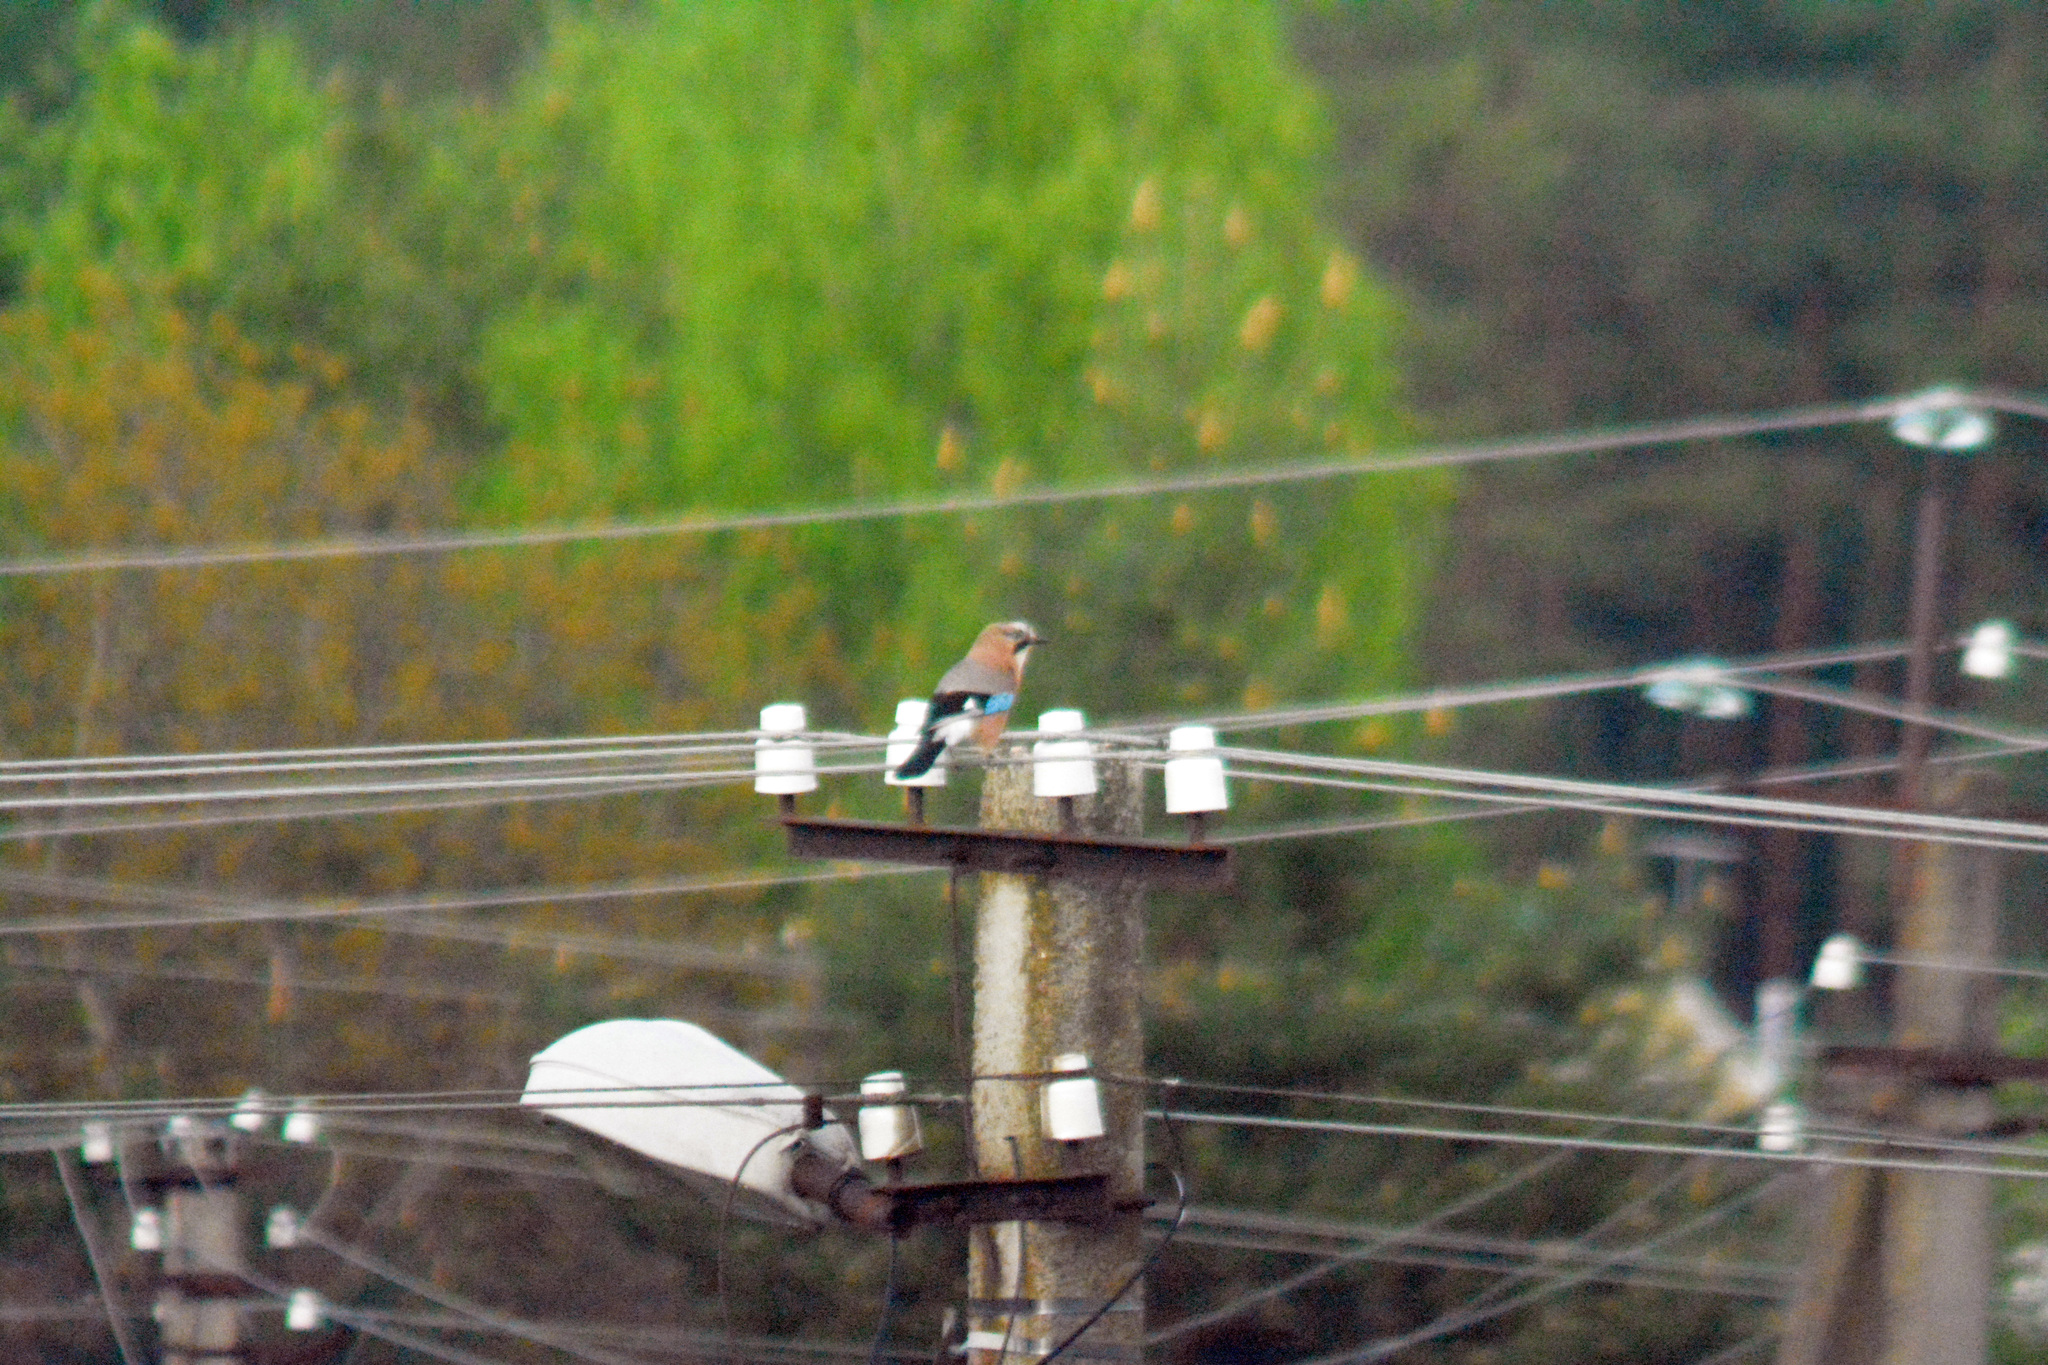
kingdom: Animalia
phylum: Chordata
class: Aves
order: Passeriformes
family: Corvidae
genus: Garrulus
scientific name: Garrulus glandarius
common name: Eurasian jay
